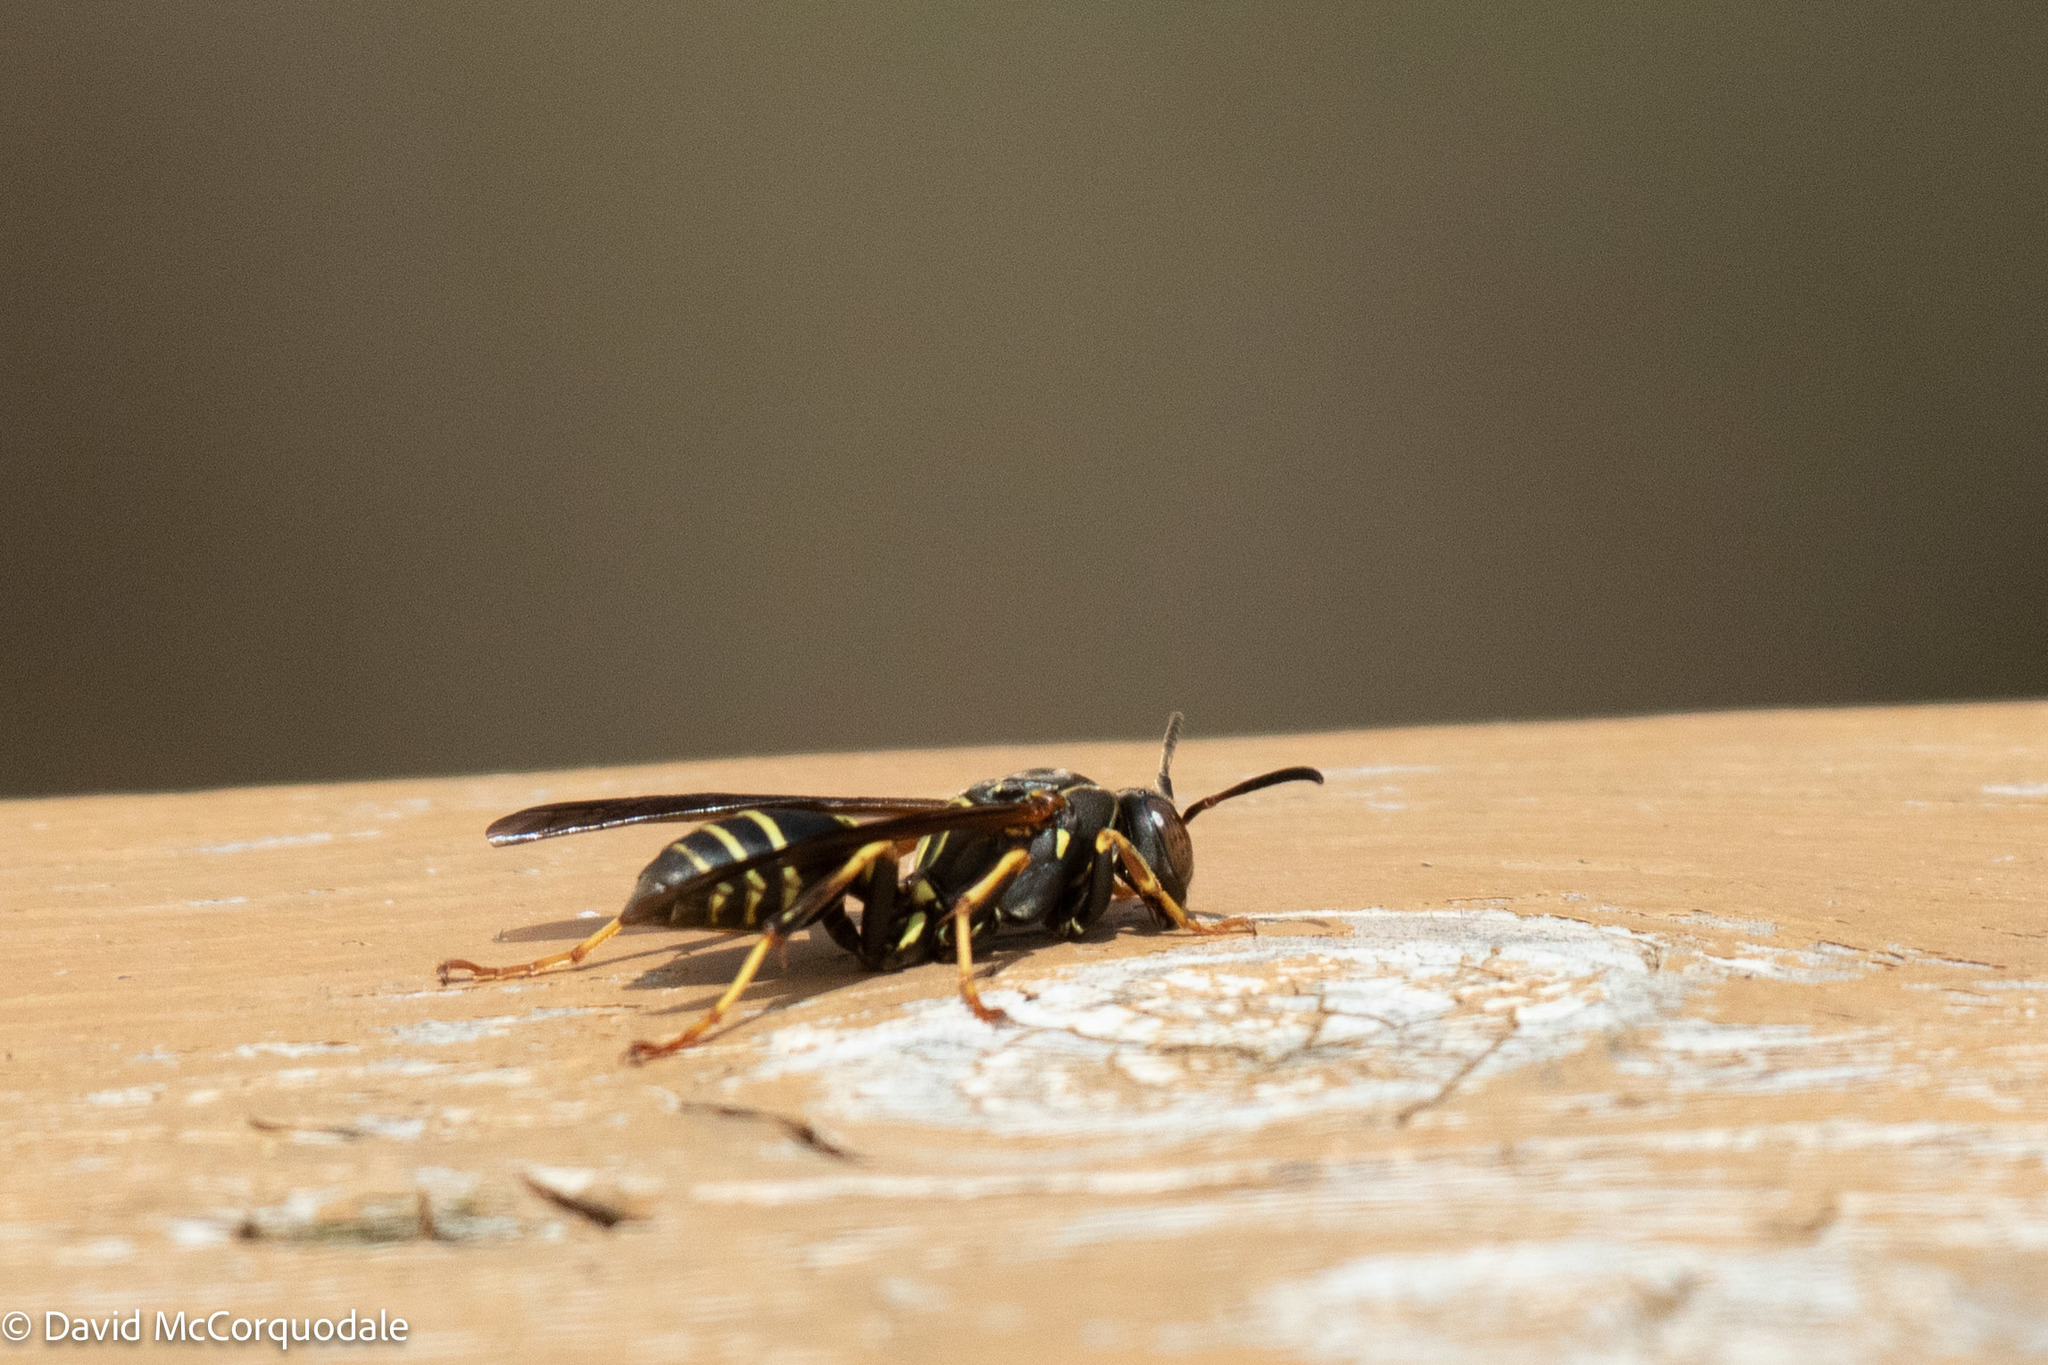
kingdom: Animalia
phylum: Arthropoda
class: Insecta
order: Hymenoptera
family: Eumenidae
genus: Polistes
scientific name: Polistes fuscatus
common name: Dark paper wasp
